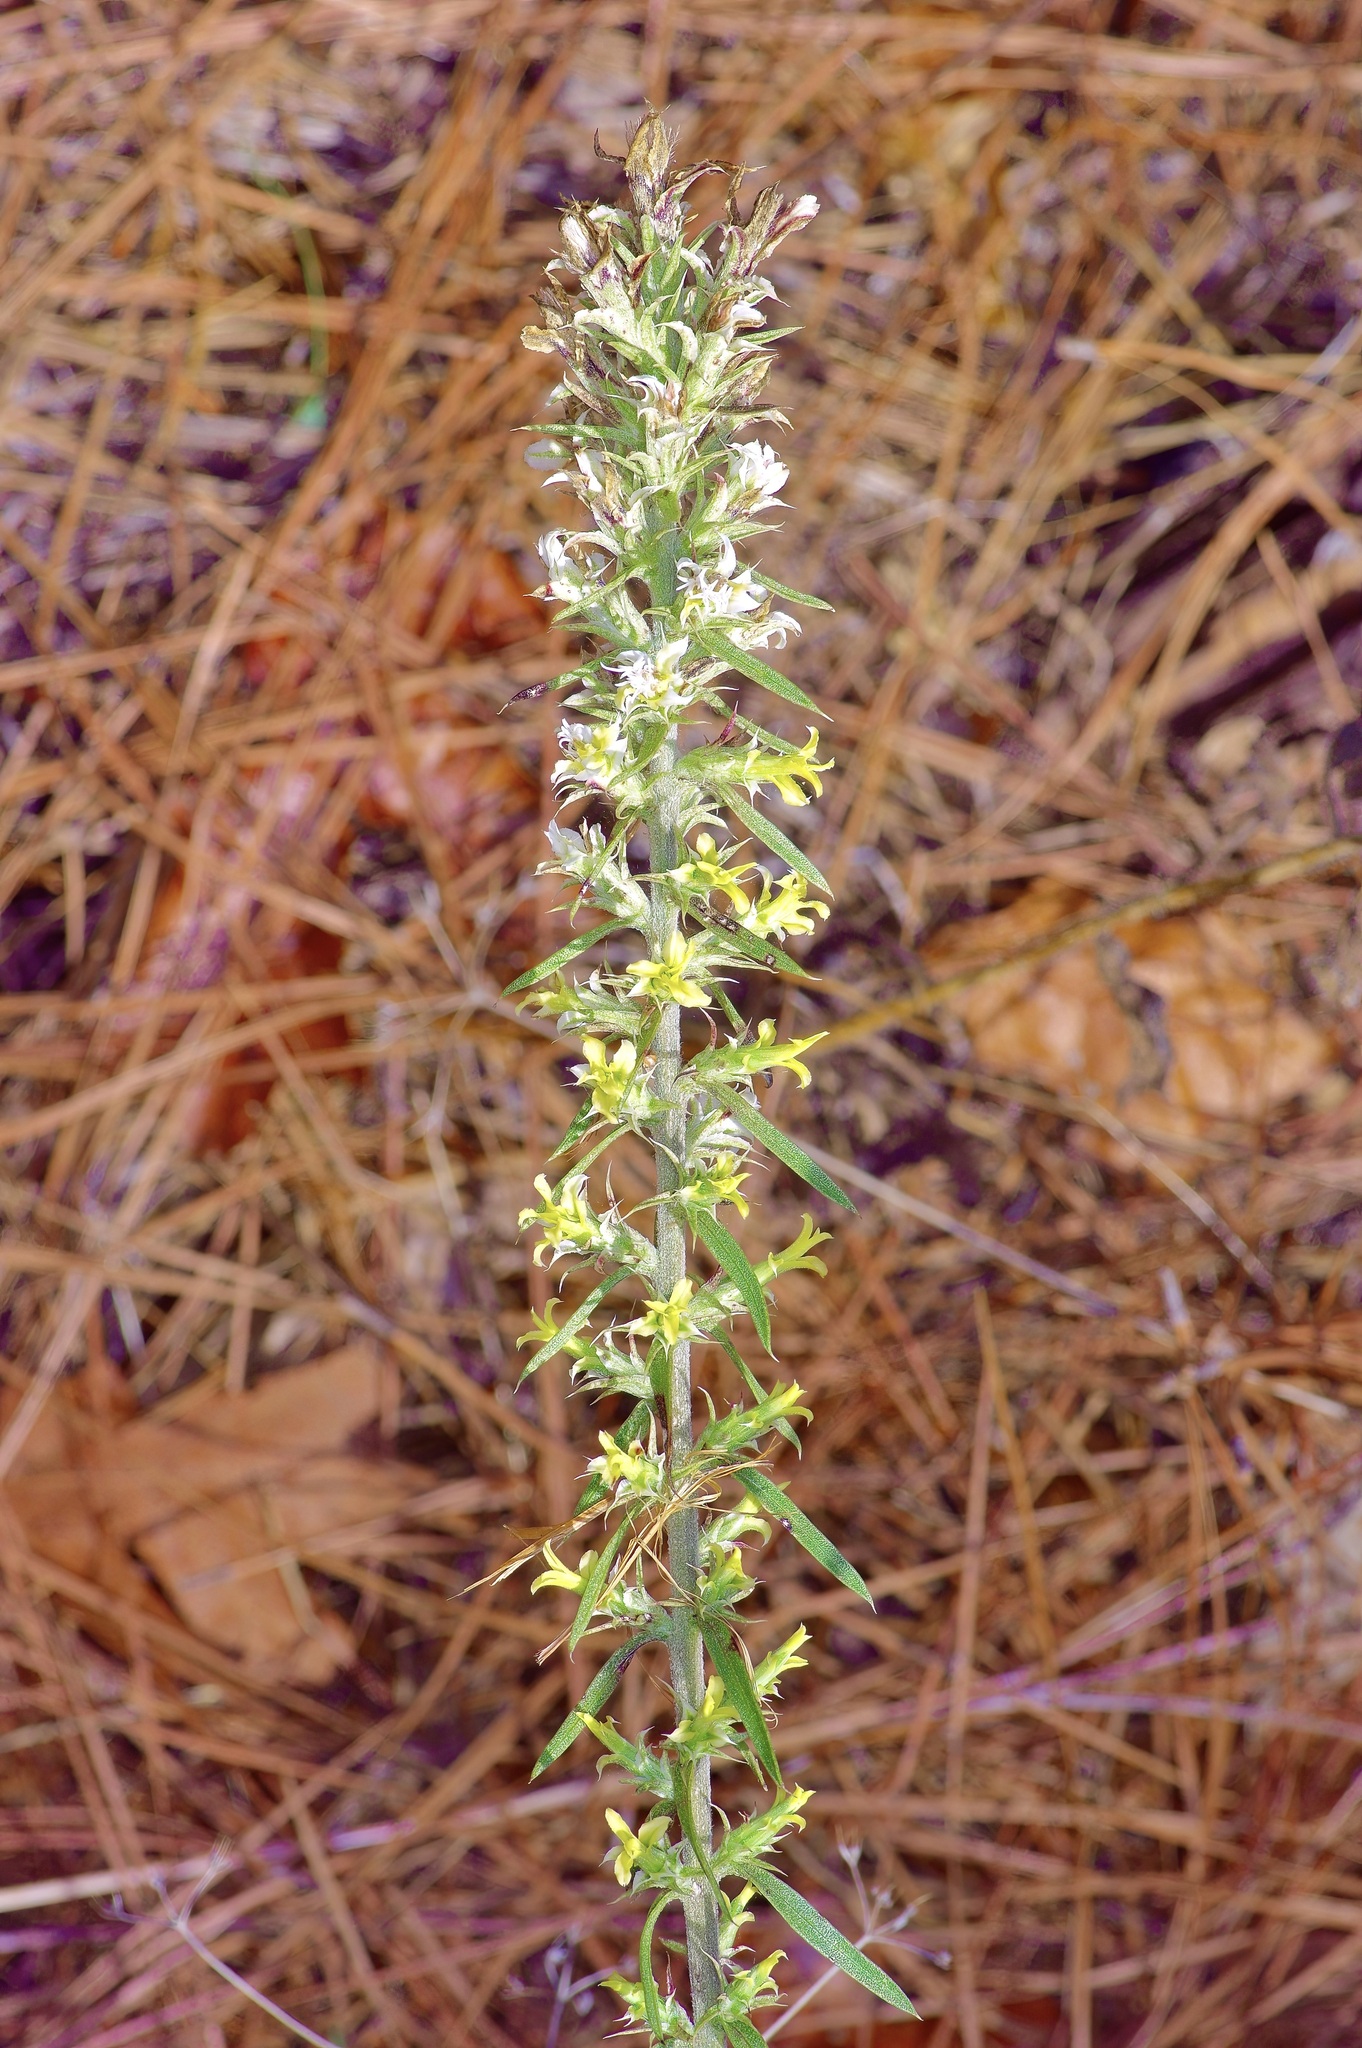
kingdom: Plantae
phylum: Tracheophyta
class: Magnoliopsida
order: Asterales
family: Asteraceae
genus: Liatris
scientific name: Liatris bridgesii
